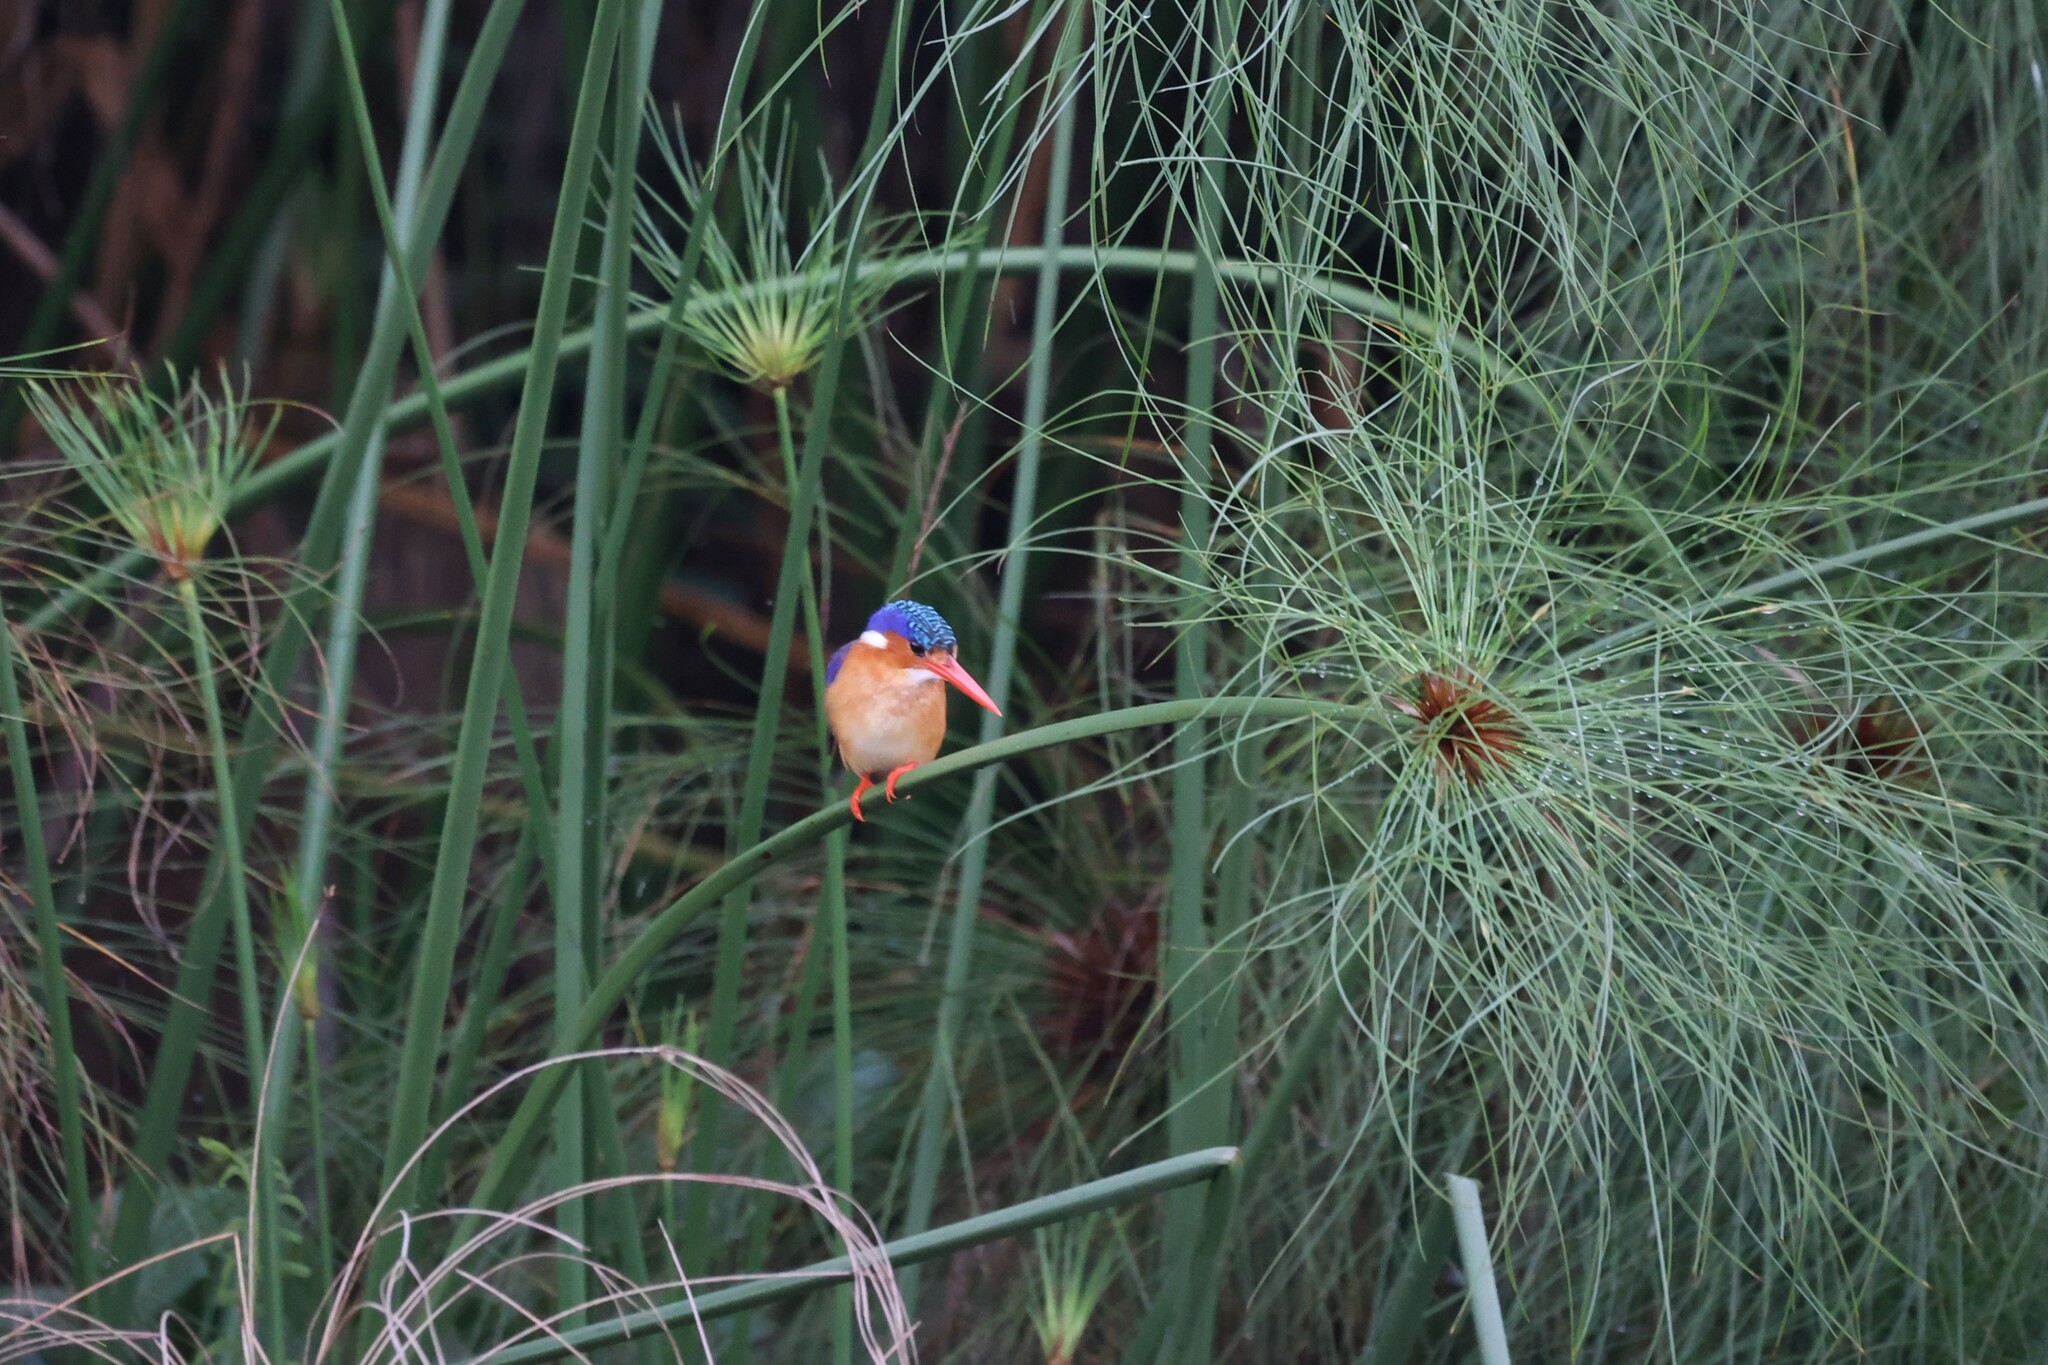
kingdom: Animalia
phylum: Chordata
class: Aves
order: Coraciiformes
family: Alcedinidae
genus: Corythornis
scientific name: Corythornis cristatus
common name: Malachite kingfisher
